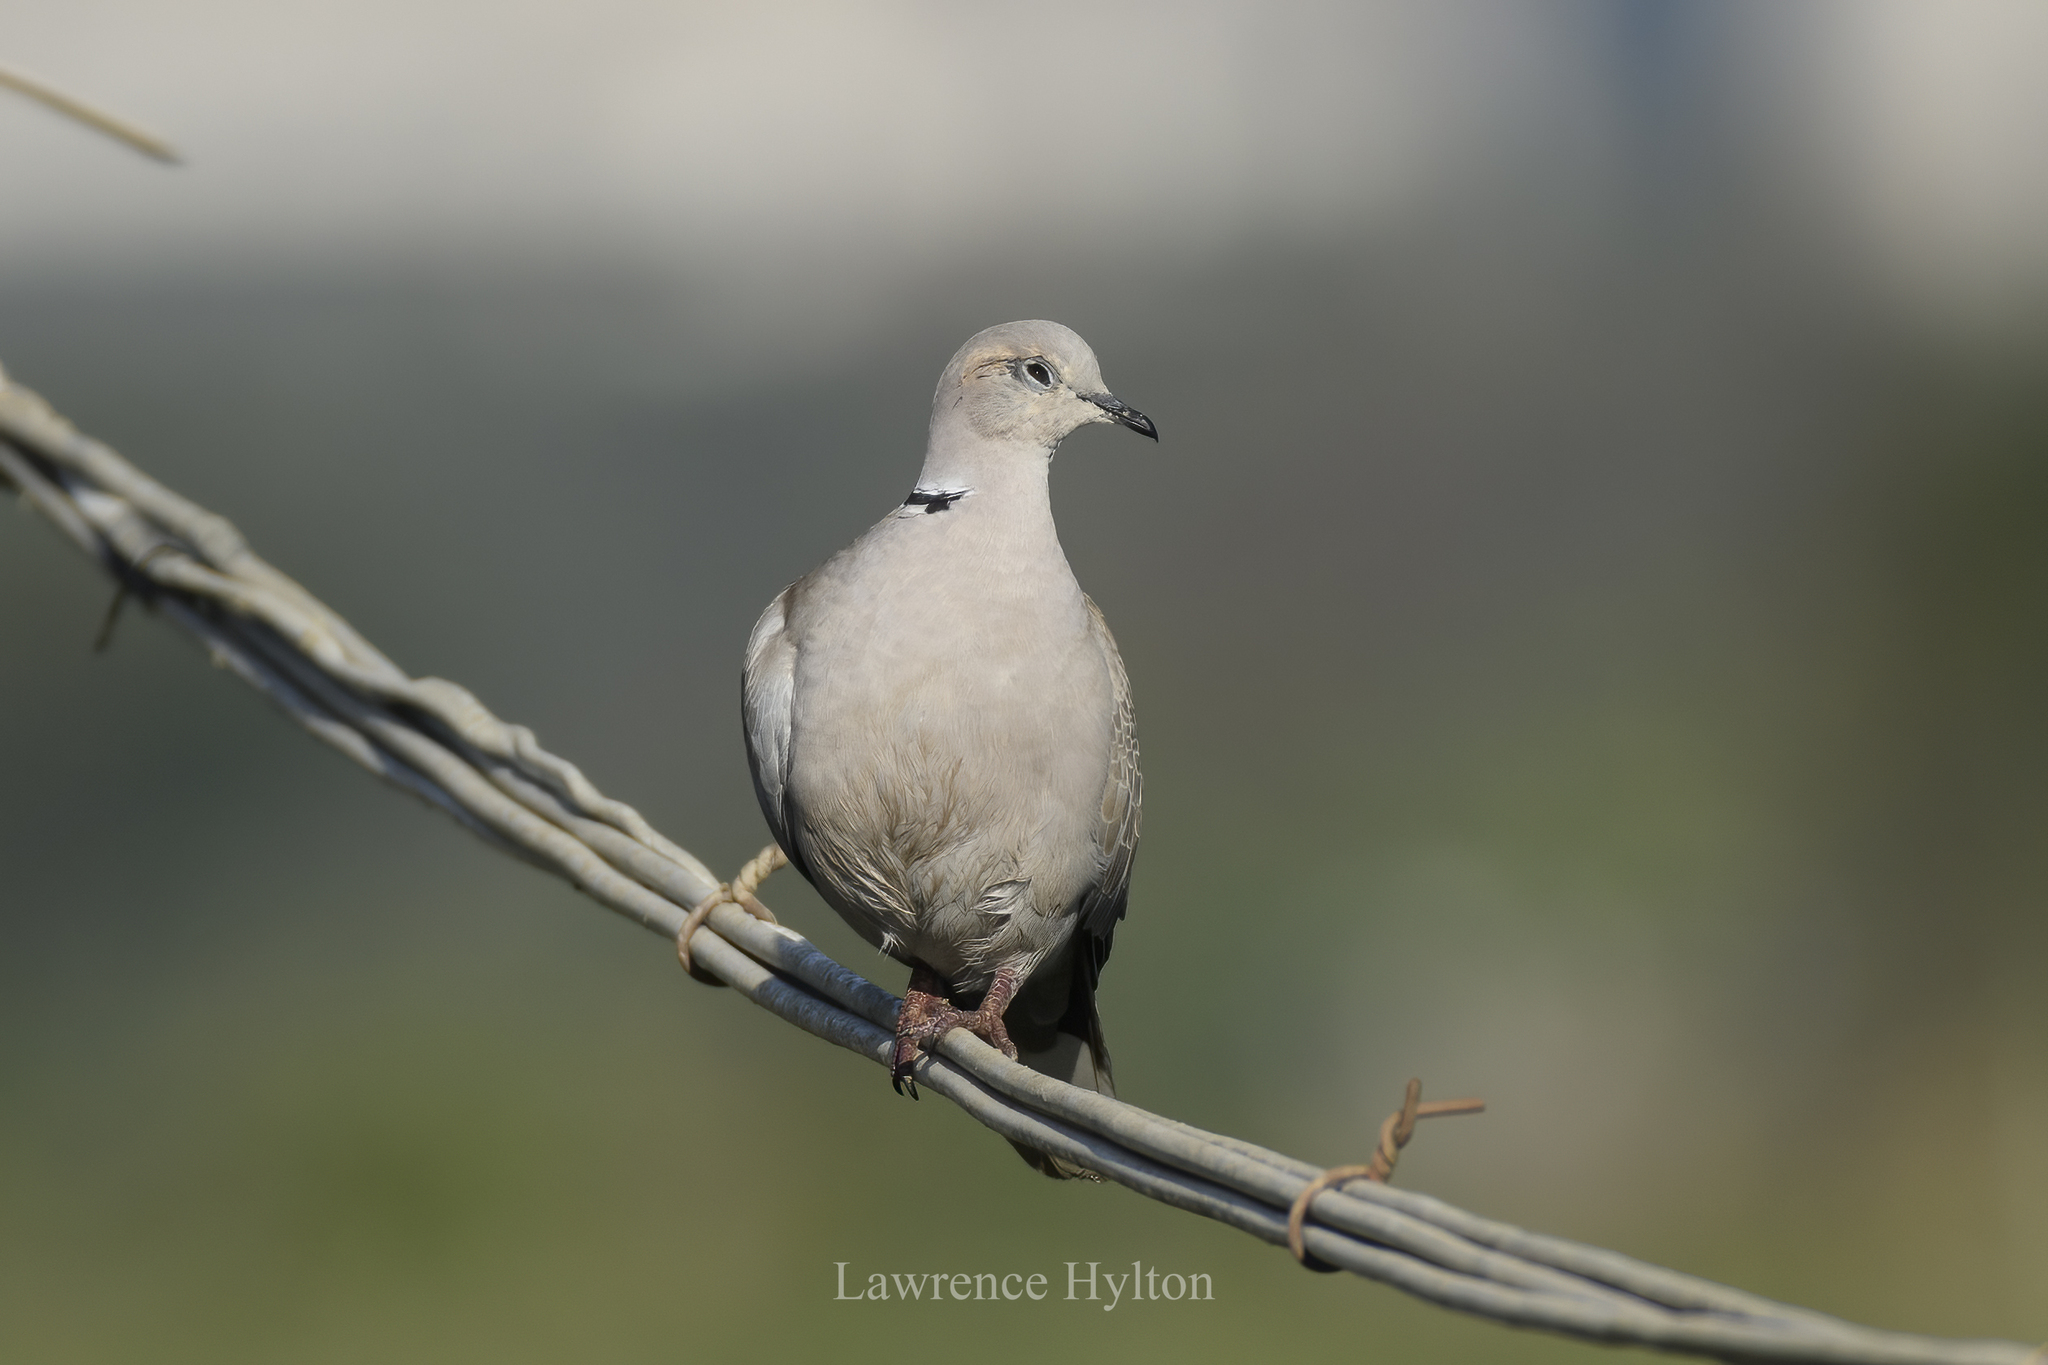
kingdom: Animalia
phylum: Chordata
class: Aves
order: Columbiformes
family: Columbidae
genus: Streptopelia
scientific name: Streptopelia decaocto
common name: Eurasian collared dove
